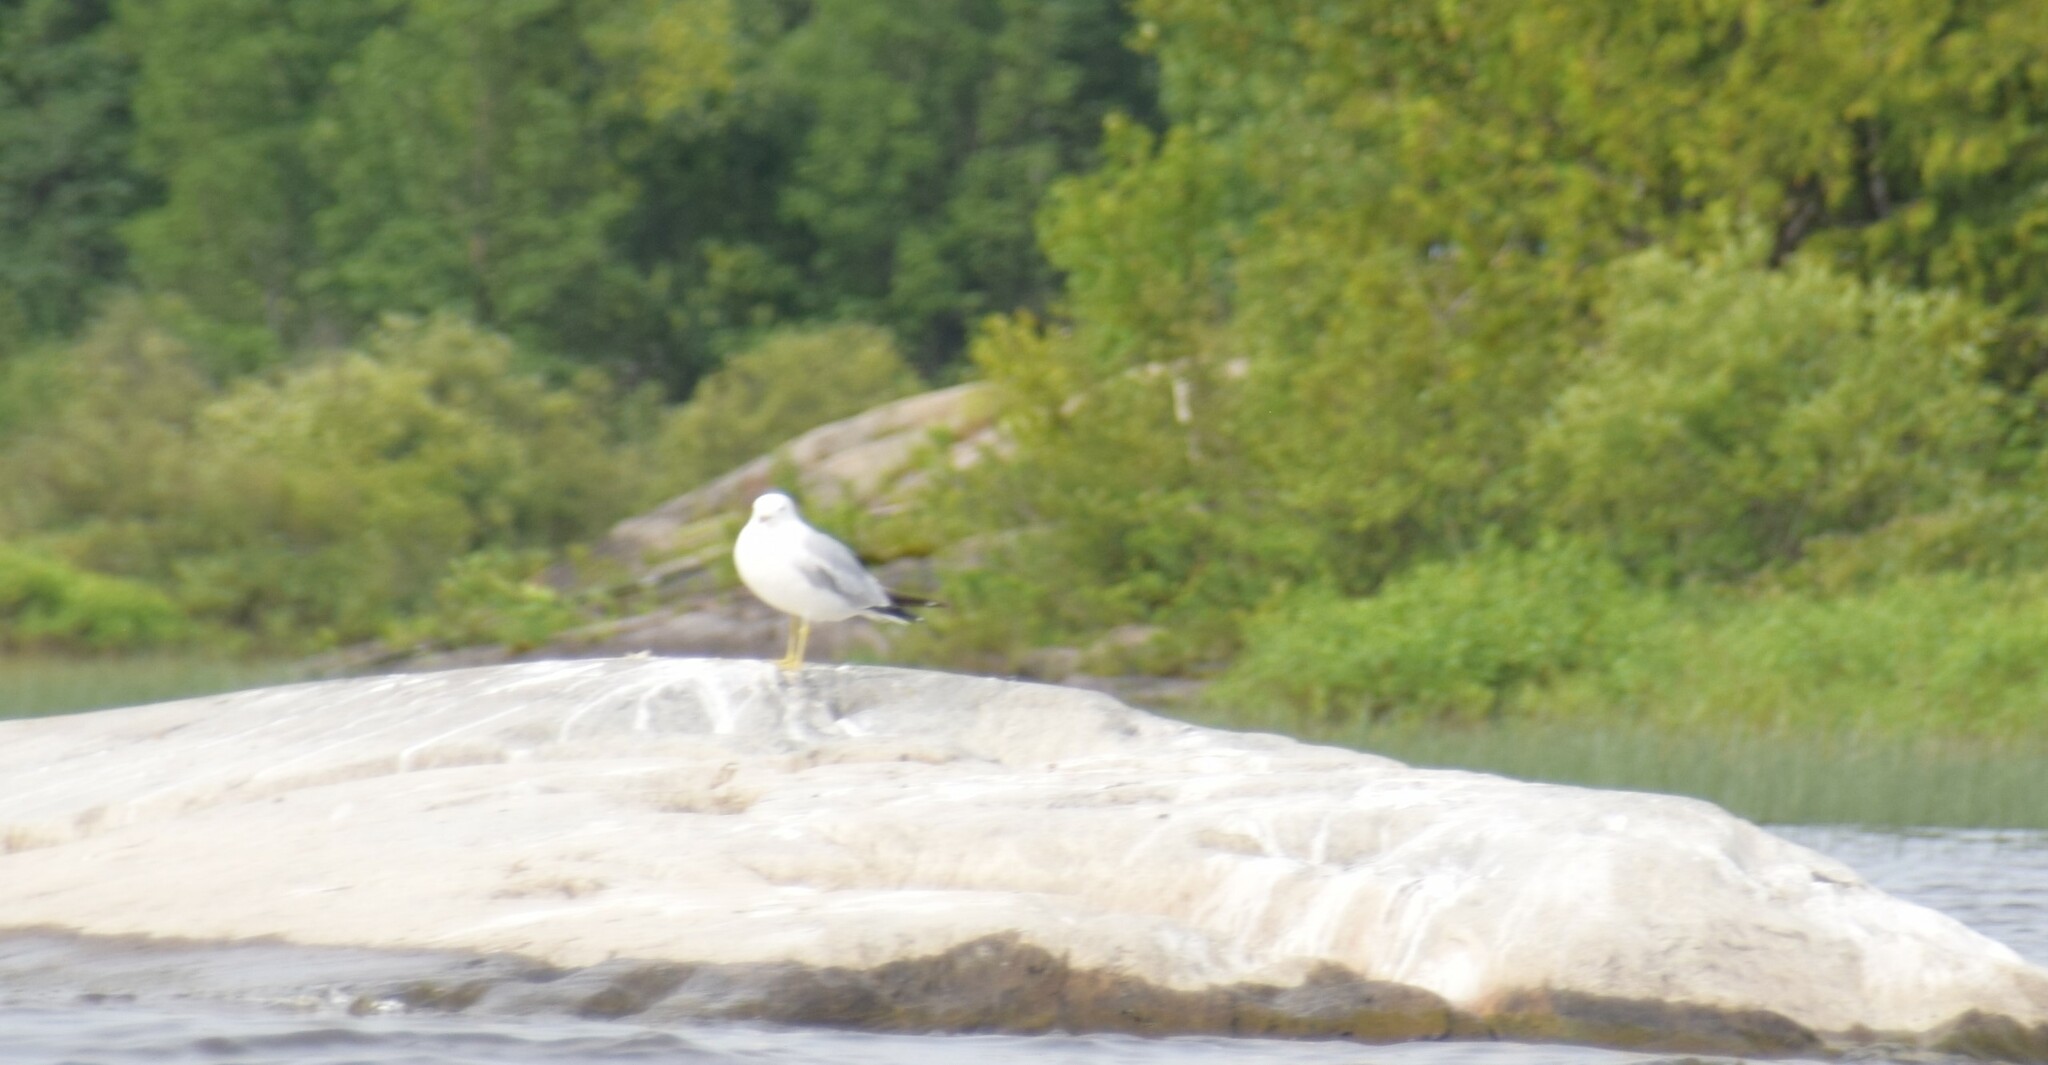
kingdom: Animalia
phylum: Chordata
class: Aves
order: Charadriiformes
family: Laridae
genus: Larus
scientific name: Larus delawarensis
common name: Ring-billed gull
